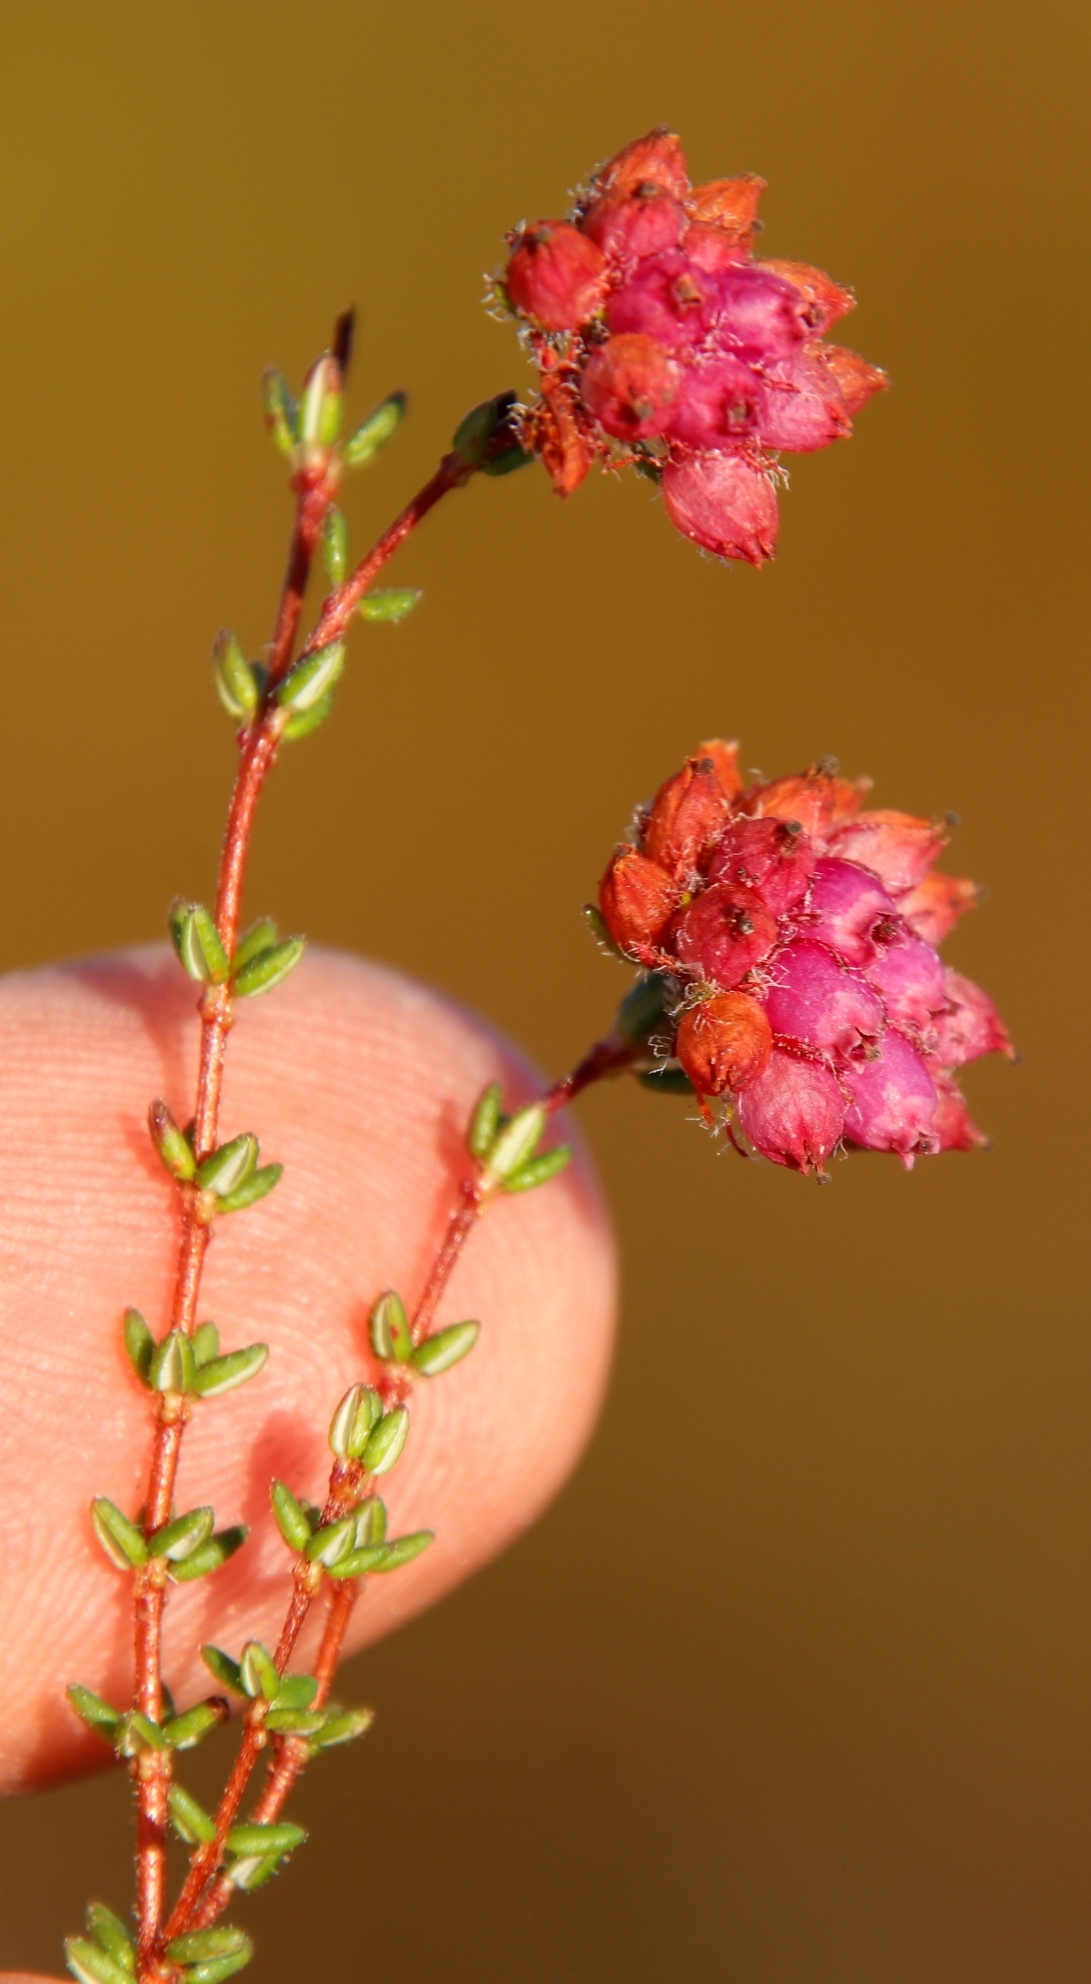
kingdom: Plantae
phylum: Tracheophyta
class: Magnoliopsida
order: Ericales
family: Ericaceae
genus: Erica
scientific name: Erica clavisepala
